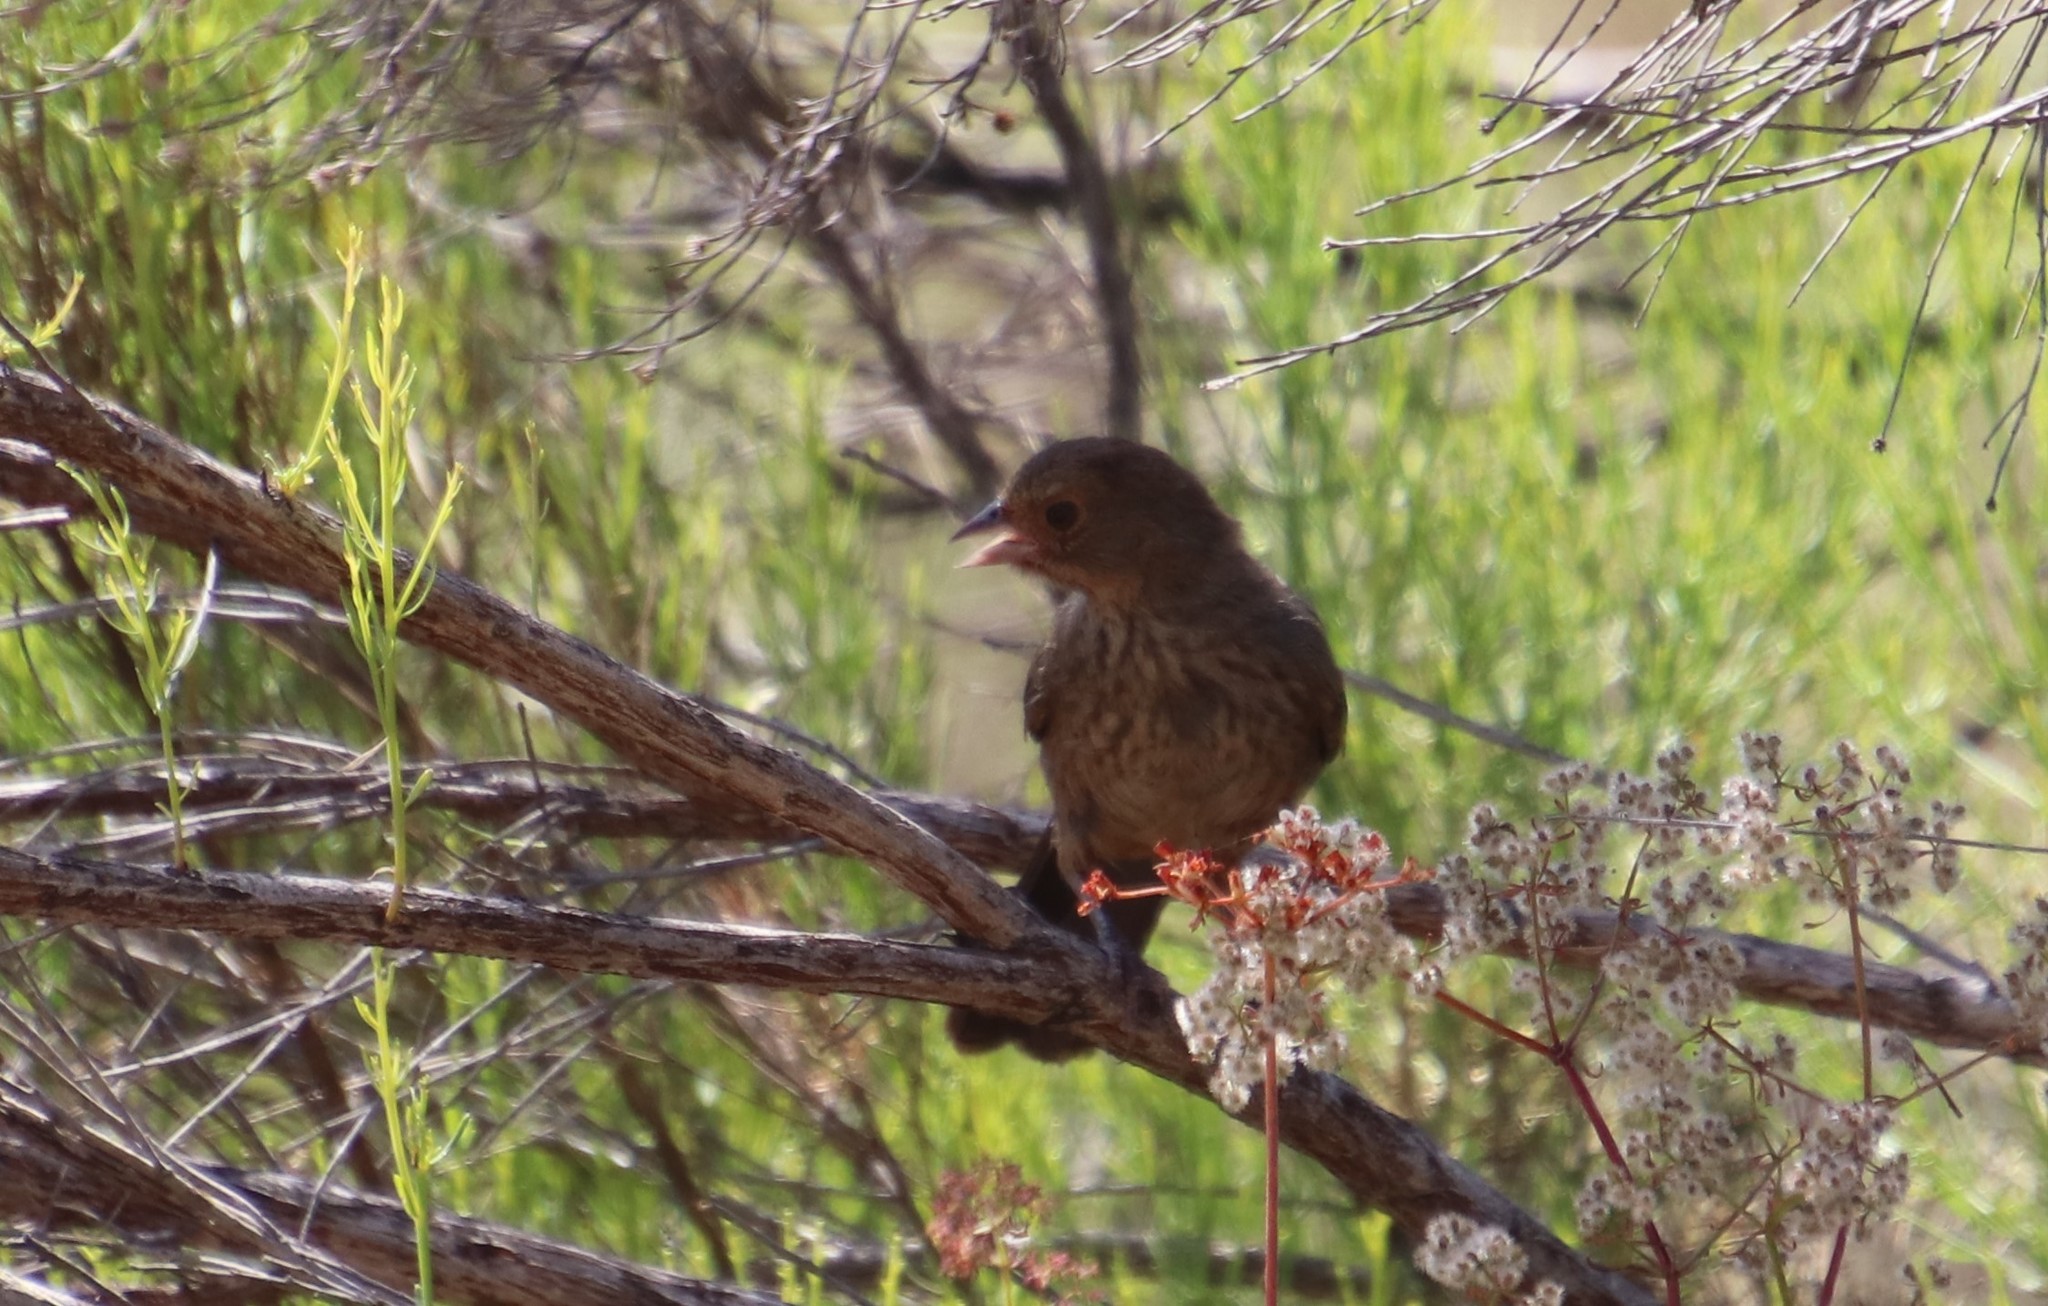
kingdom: Animalia
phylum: Chordata
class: Aves
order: Passeriformes
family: Passerellidae
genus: Melozone
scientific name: Melozone crissalis
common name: California towhee
